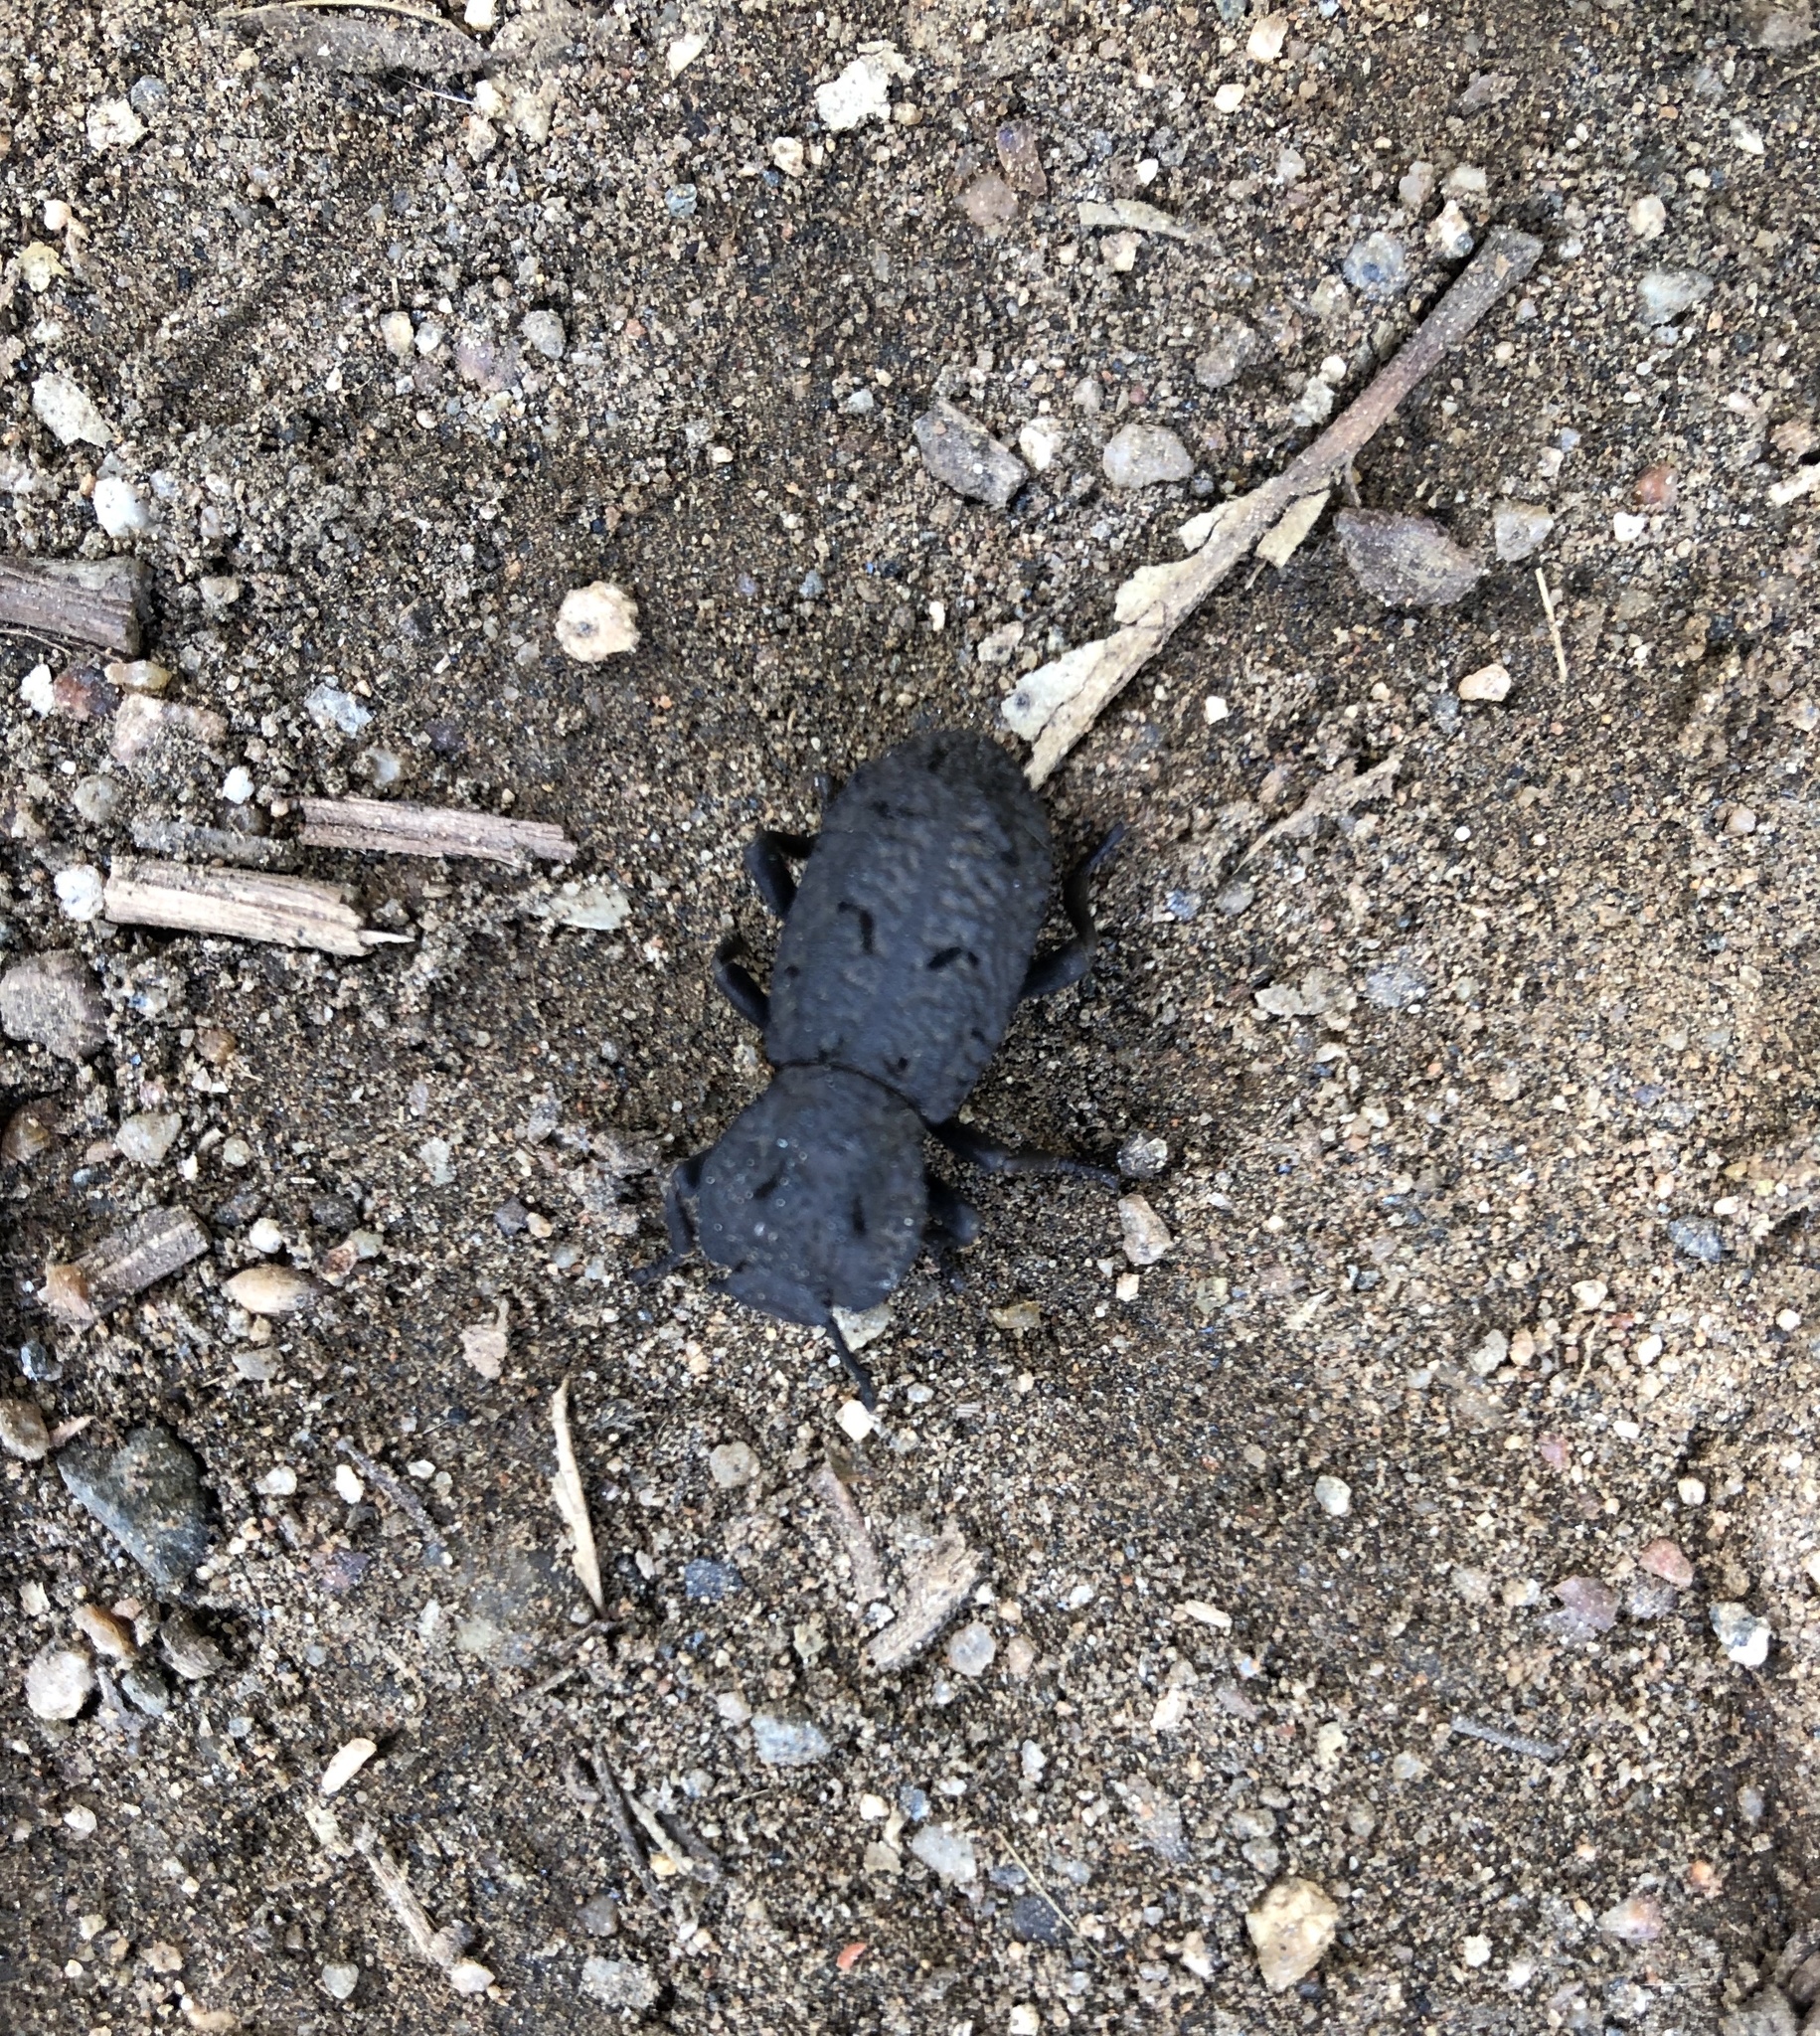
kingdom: Animalia
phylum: Arthropoda
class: Insecta
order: Coleoptera
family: Zopheridae
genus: Phloeodes
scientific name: Phloeodes diabolicus
